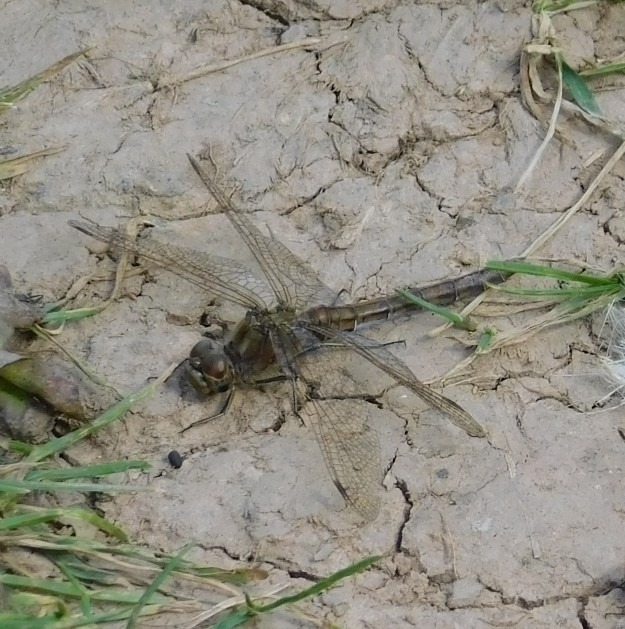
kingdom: Animalia
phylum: Arthropoda
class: Insecta
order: Odonata
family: Libellulidae
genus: Sympetrum
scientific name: Sympetrum vulgatum
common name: Vagrant darter
